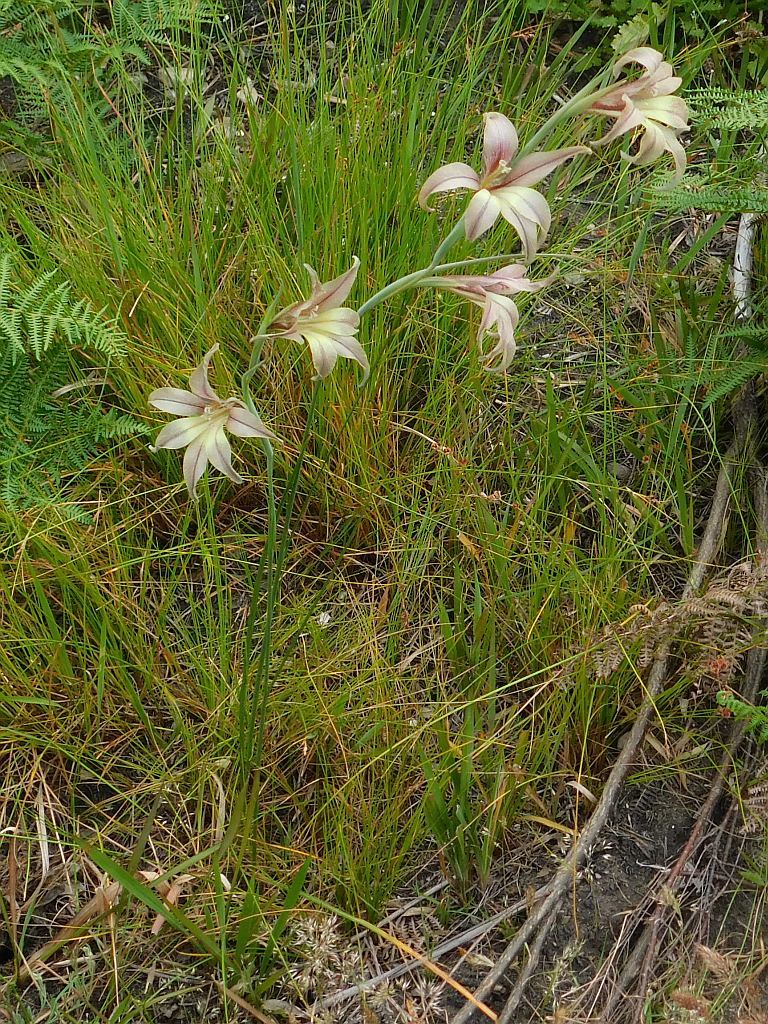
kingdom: Plantae
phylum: Tracheophyta
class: Liliopsida
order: Asparagales
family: Iridaceae
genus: Gladiolus
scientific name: Gladiolus liliaceus
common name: Large brown afrikaner
